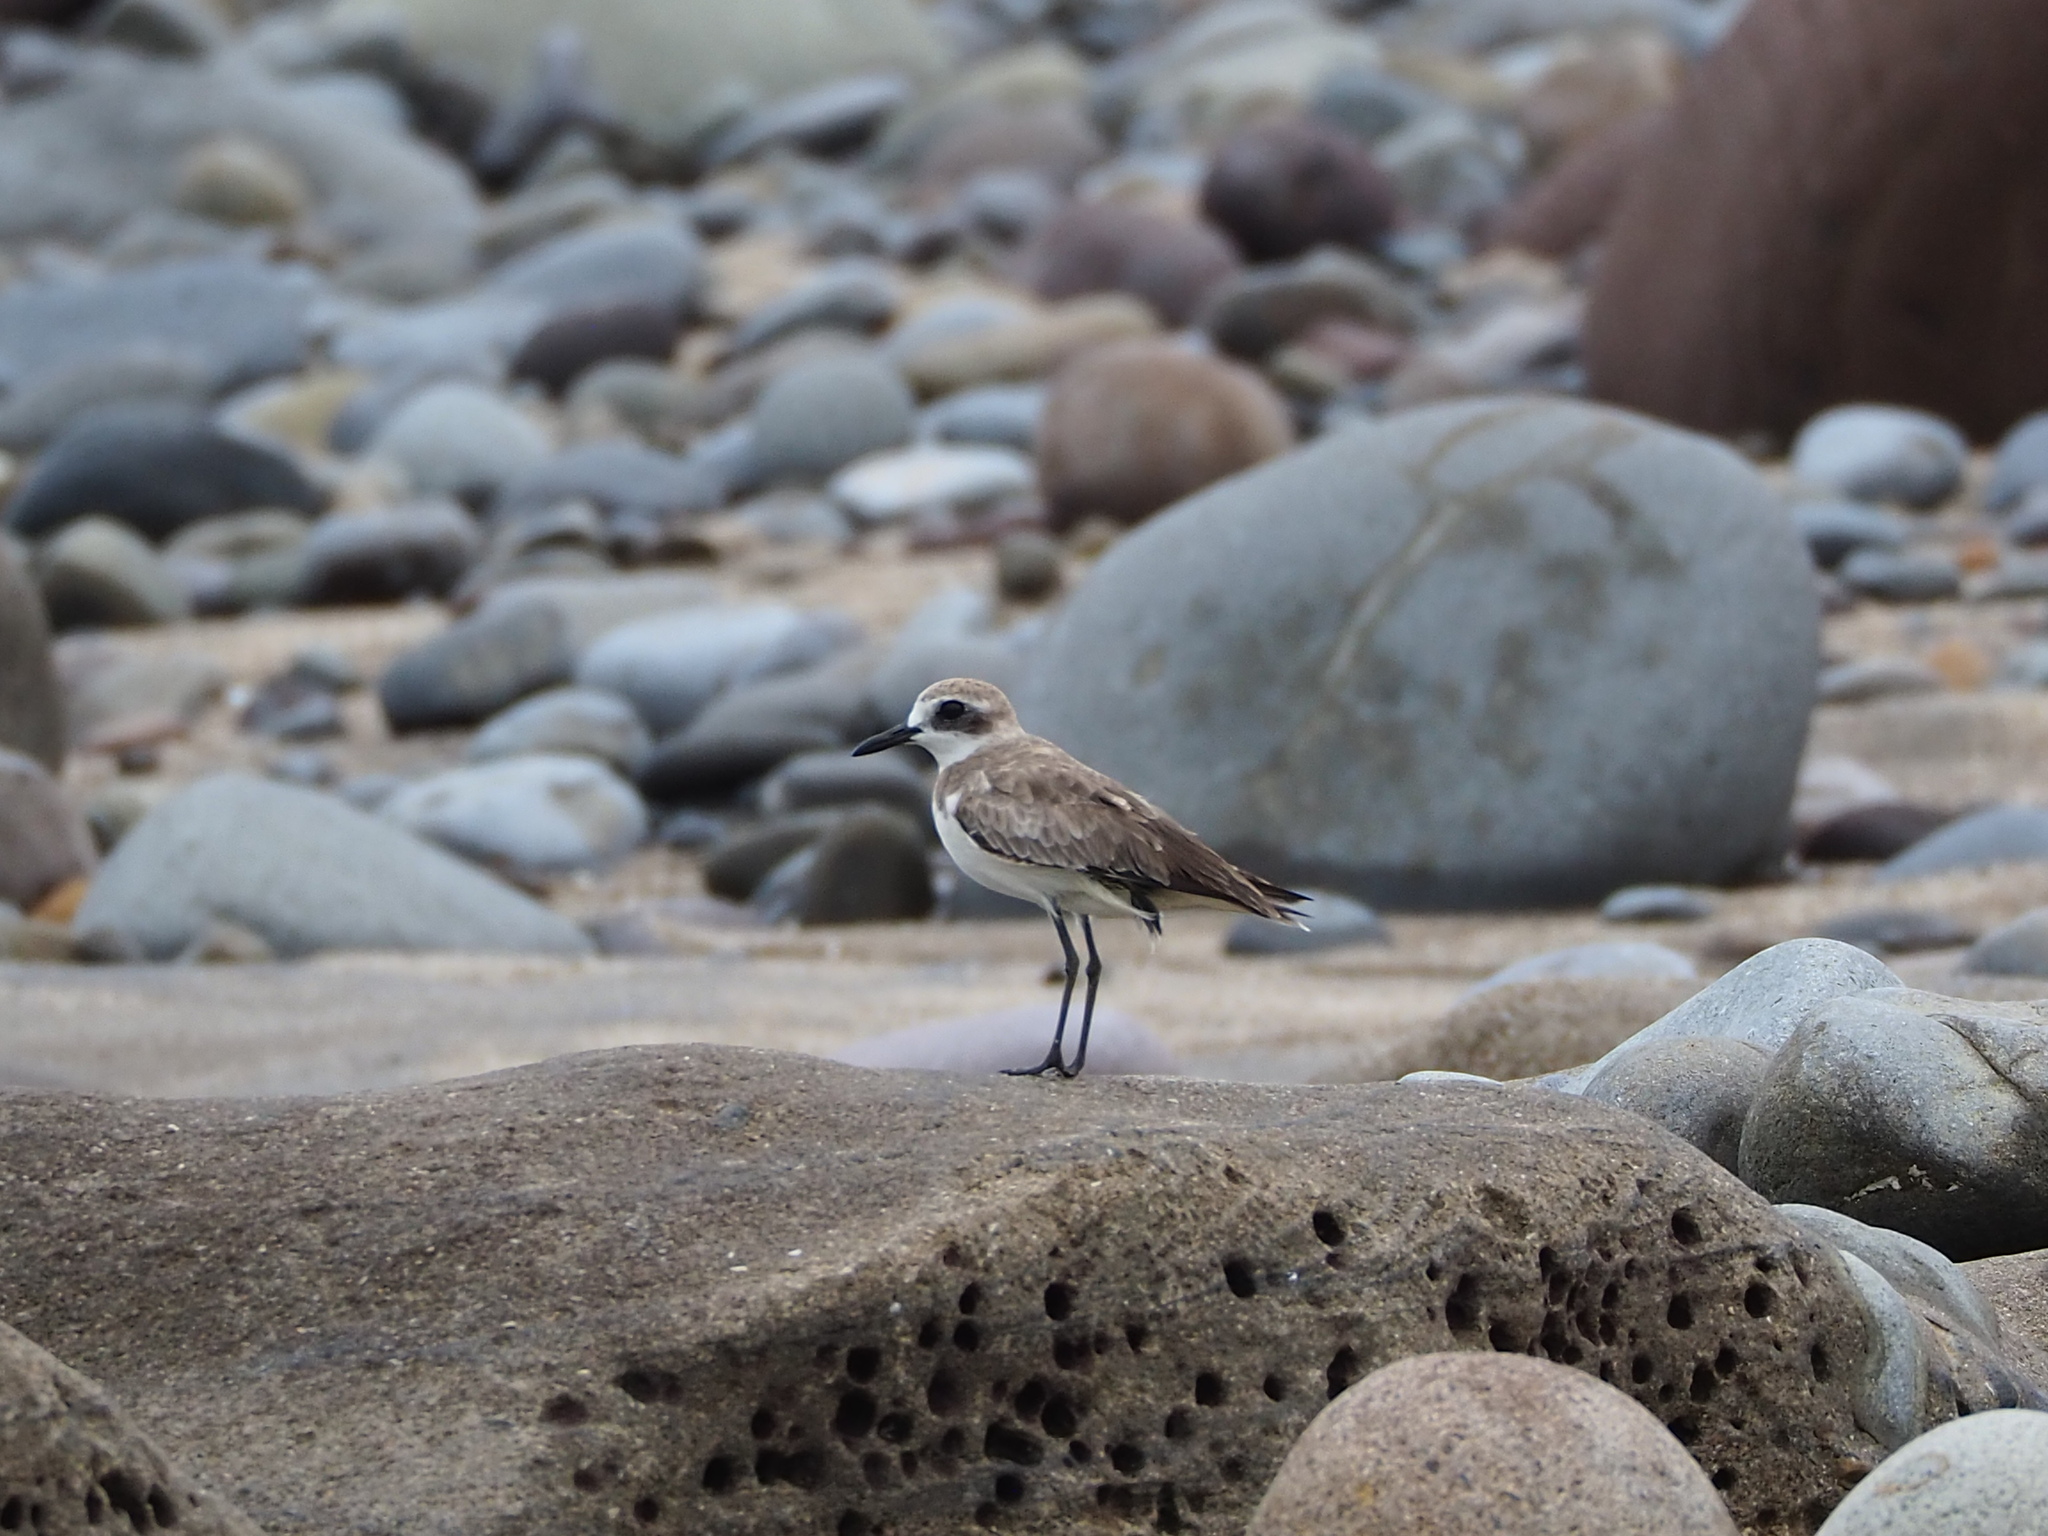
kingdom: Animalia
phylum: Chordata
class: Aves
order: Charadriiformes
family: Charadriidae
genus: Charadrius
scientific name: Charadrius leschenaultii
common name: Greater sand plover
